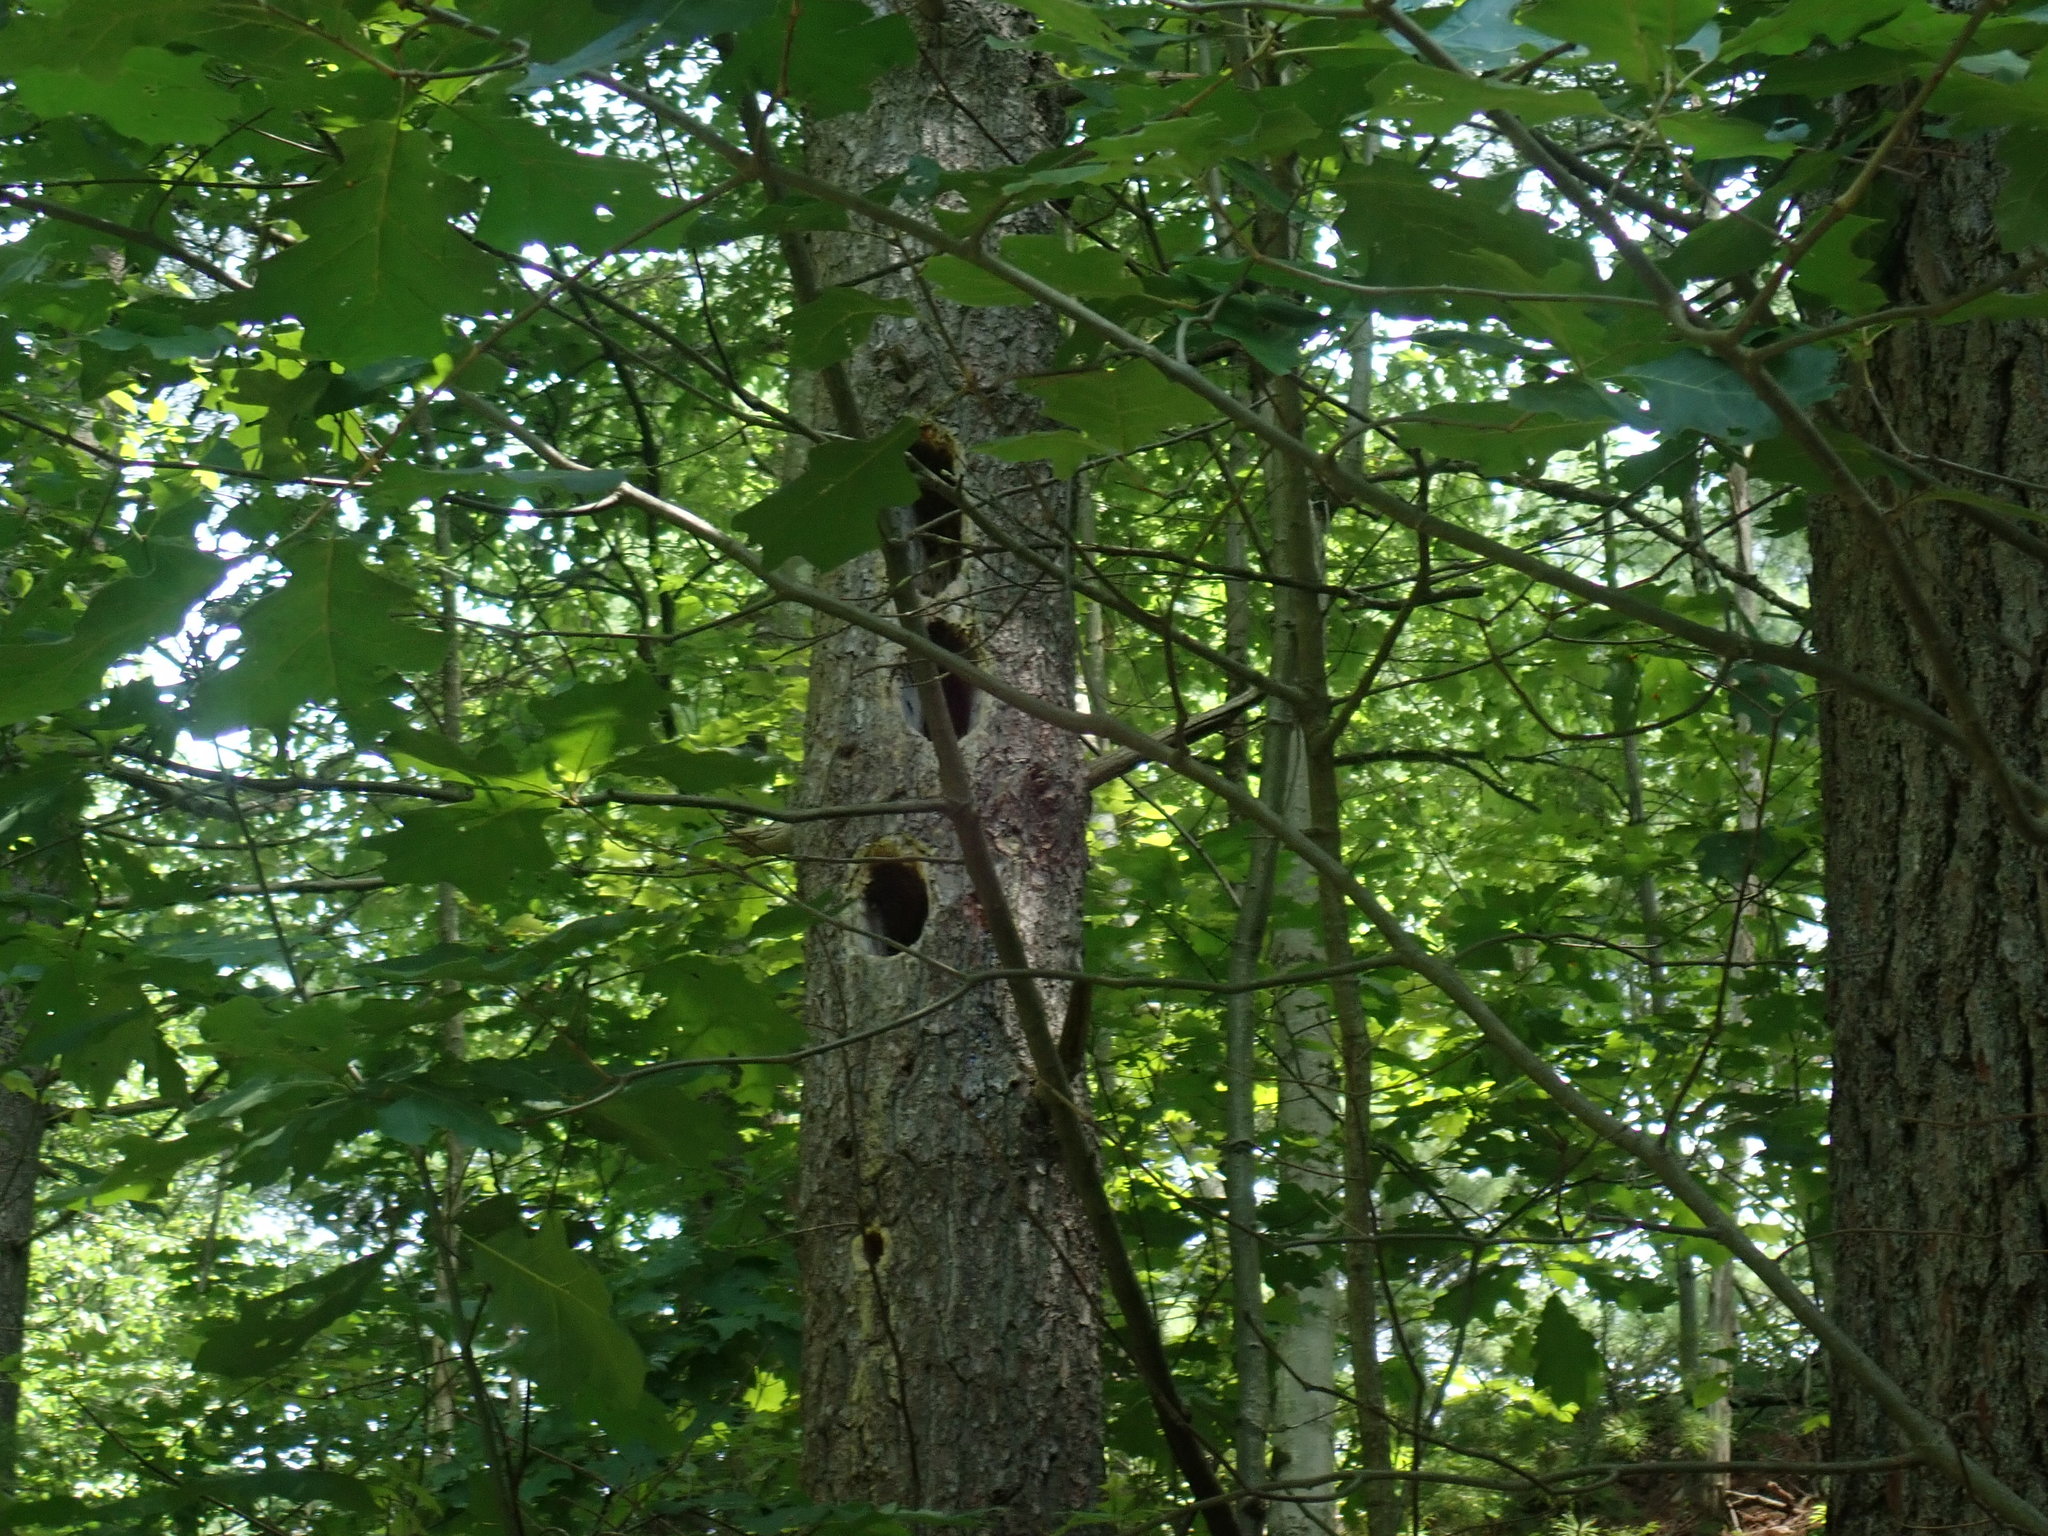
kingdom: Animalia
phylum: Chordata
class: Aves
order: Piciformes
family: Picidae
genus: Dryocopus
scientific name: Dryocopus pileatus
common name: Pileated woodpecker
